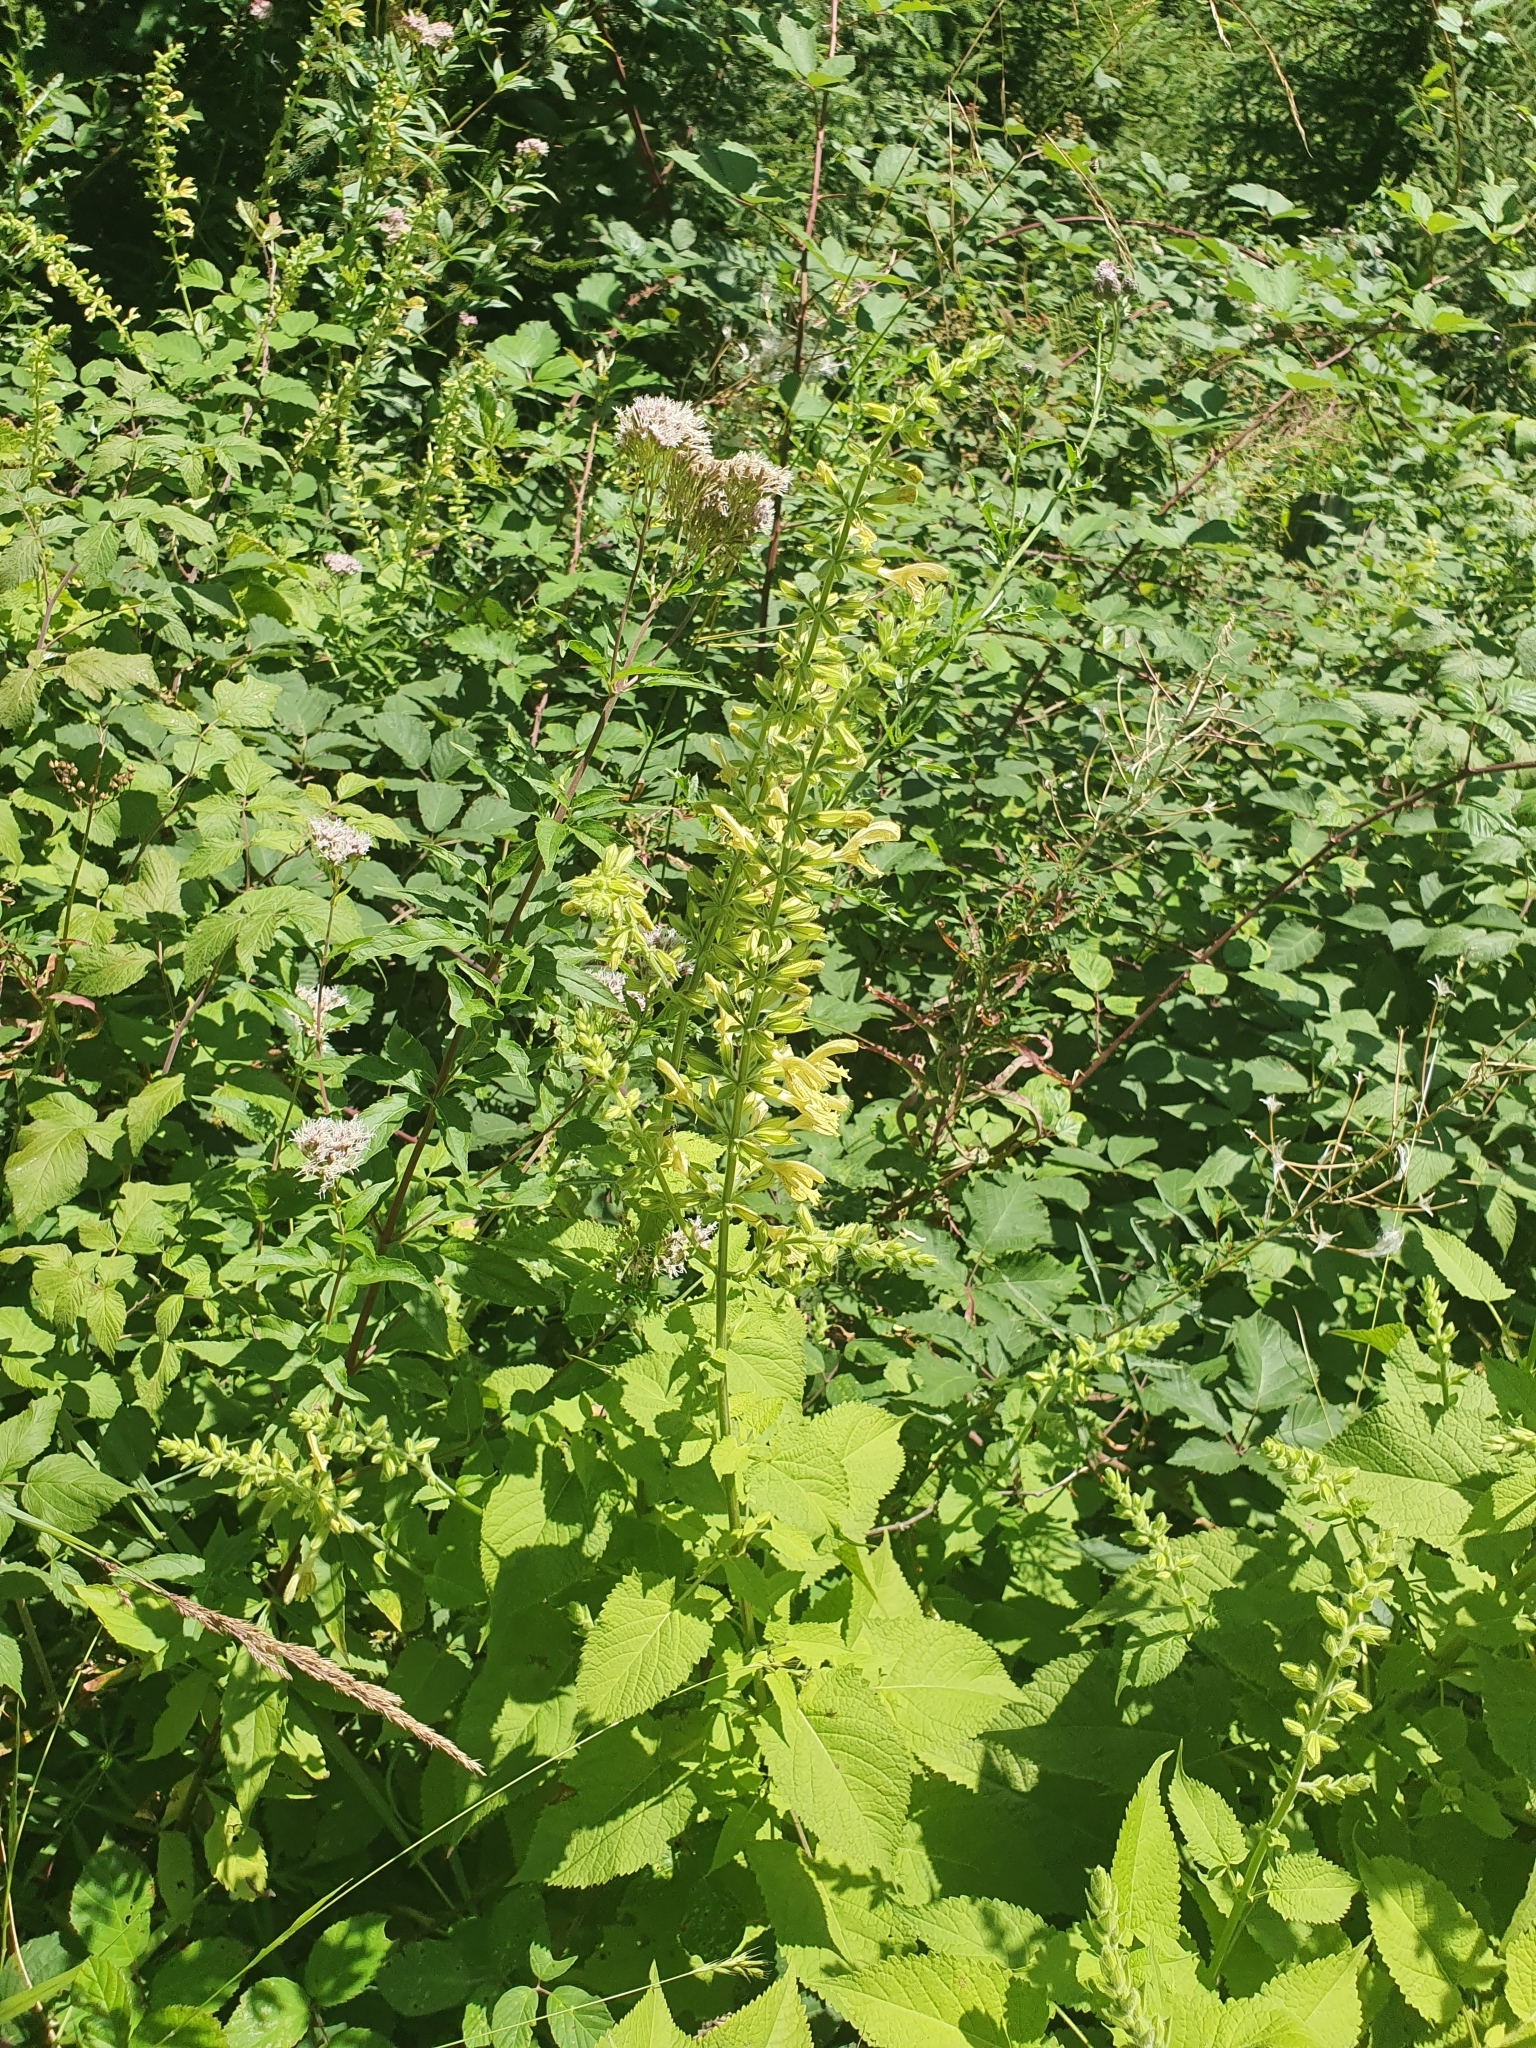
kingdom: Plantae
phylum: Tracheophyta
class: Magnoliopsida
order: Lamiales
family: Lamiaceae
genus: Salvia
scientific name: Salvia glutinosa
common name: Sticky clary
